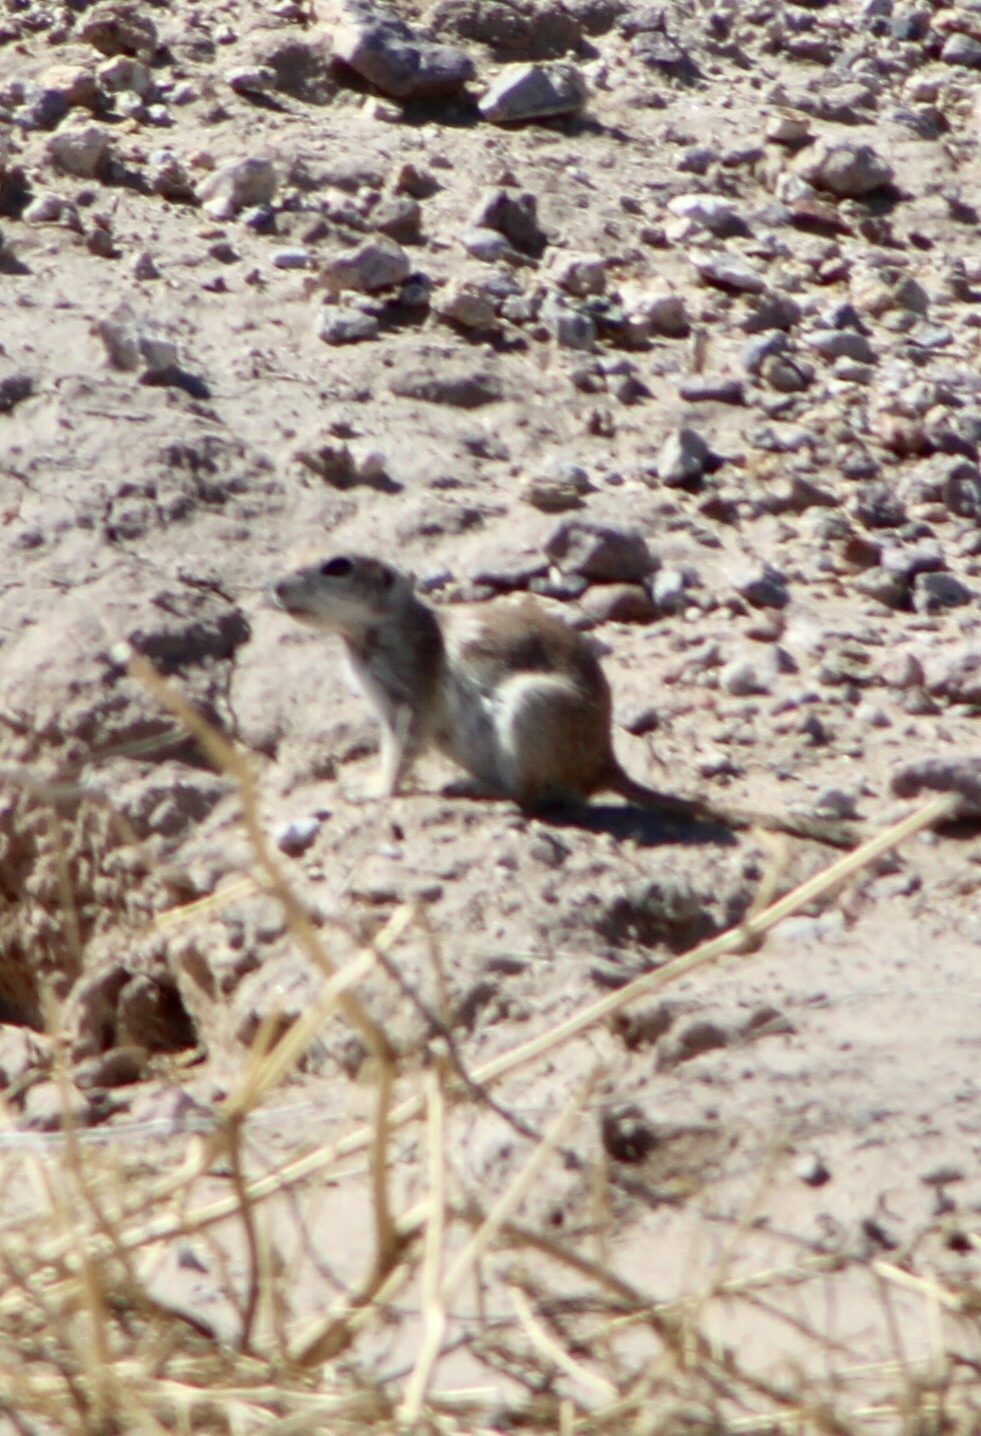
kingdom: Animalia
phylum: Chordata
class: Mammalia
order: Rodentia
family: Sciuridae
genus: Xerospermophilus
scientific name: Xerospermophilus tereticaudus
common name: Round-tailed ground squirrel
